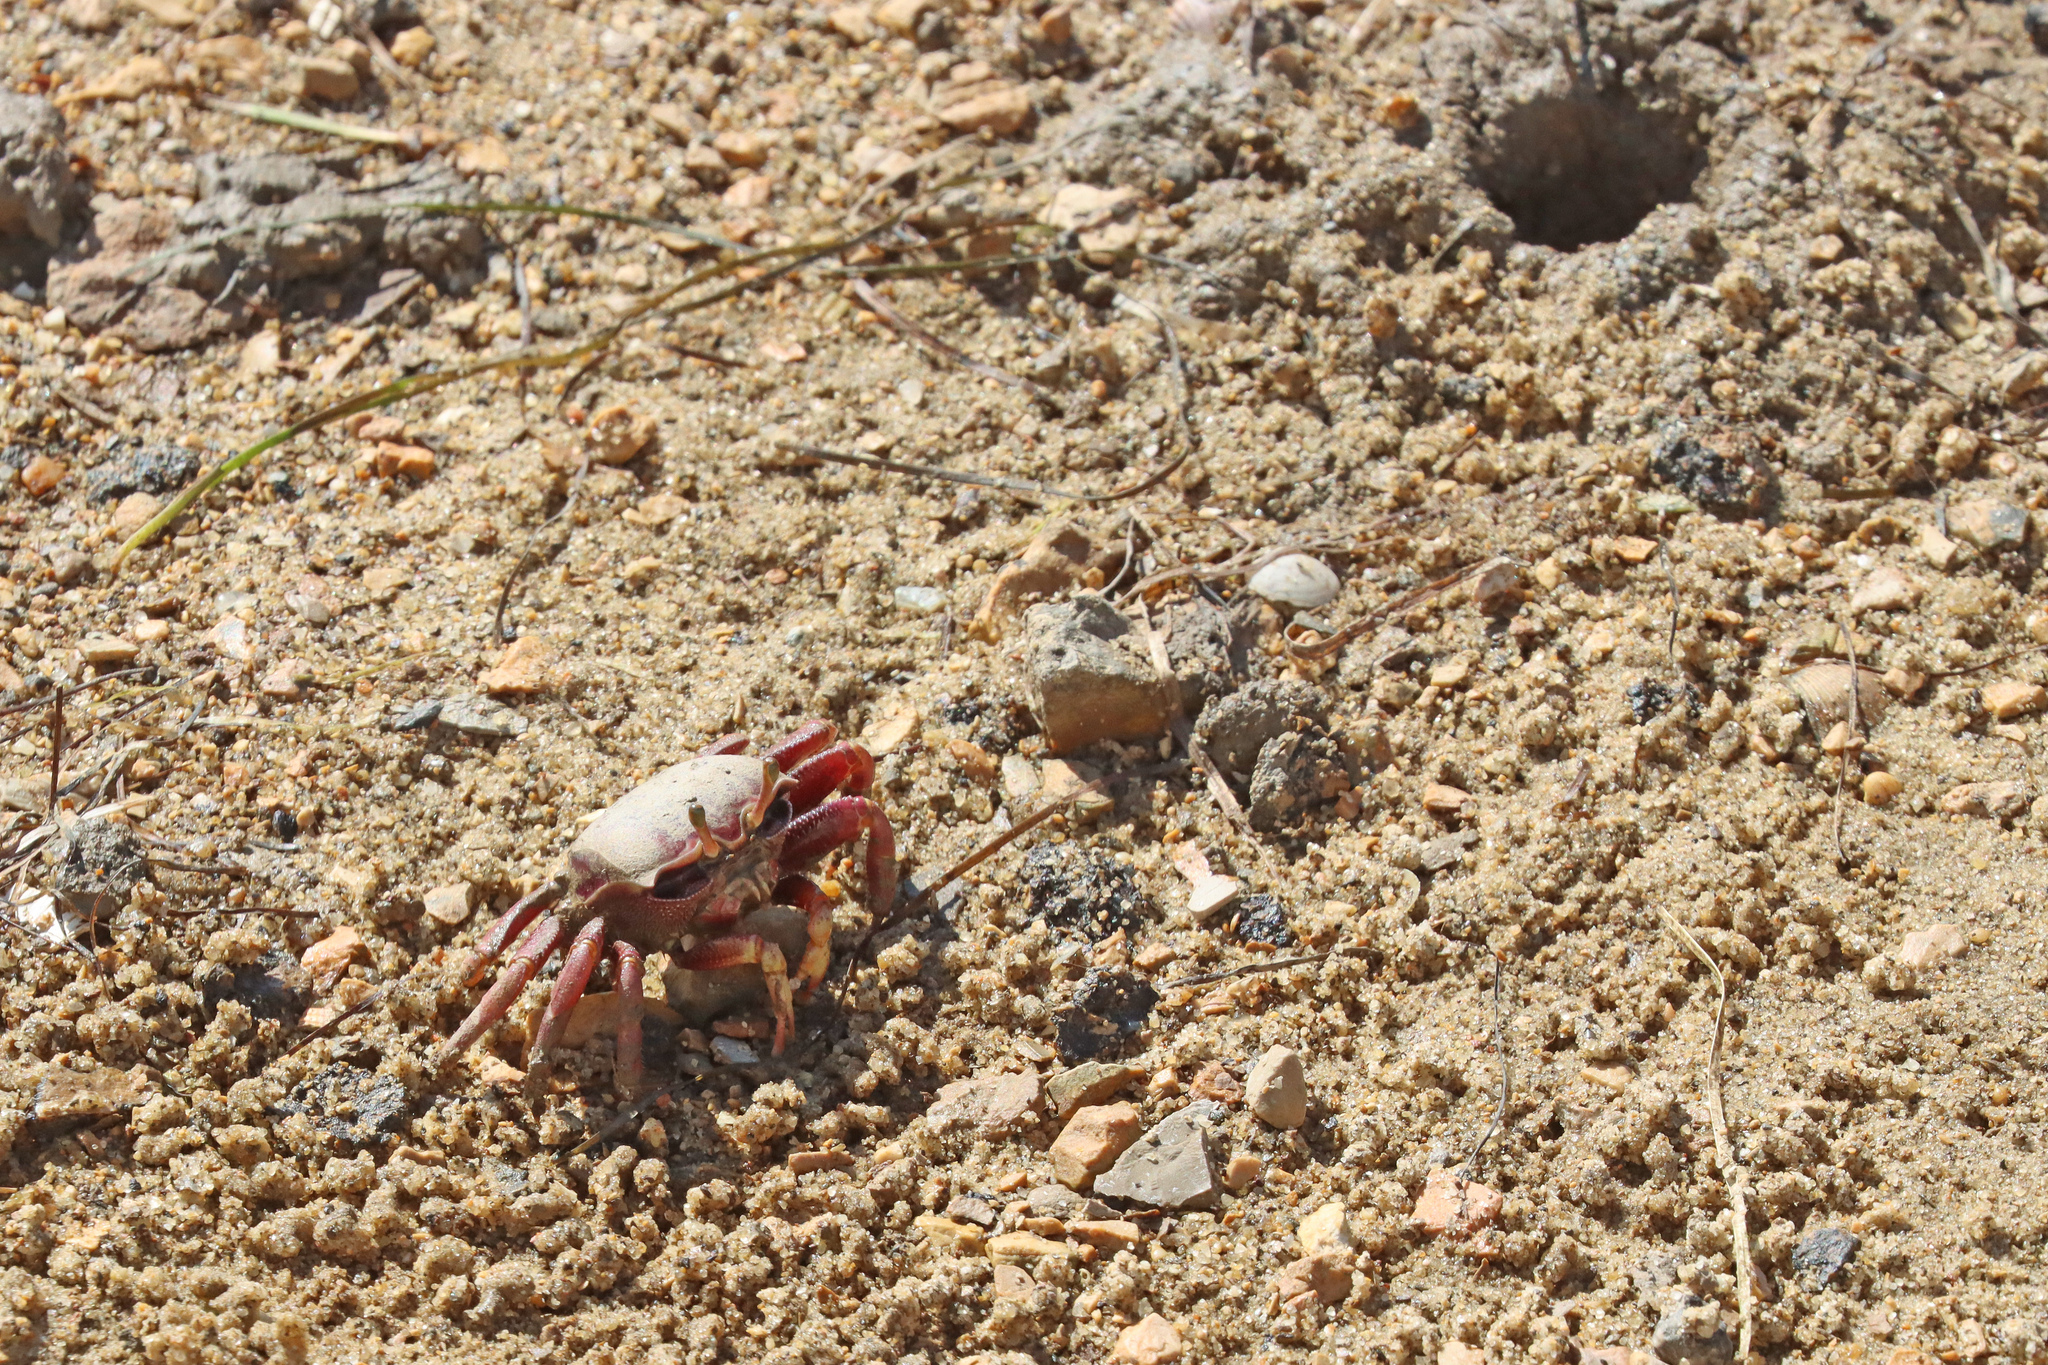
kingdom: Animalia
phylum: Arthropoda
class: Malacostraca
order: Decapoda
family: Ocypodidae
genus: Afruca
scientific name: Afruca tangeri
